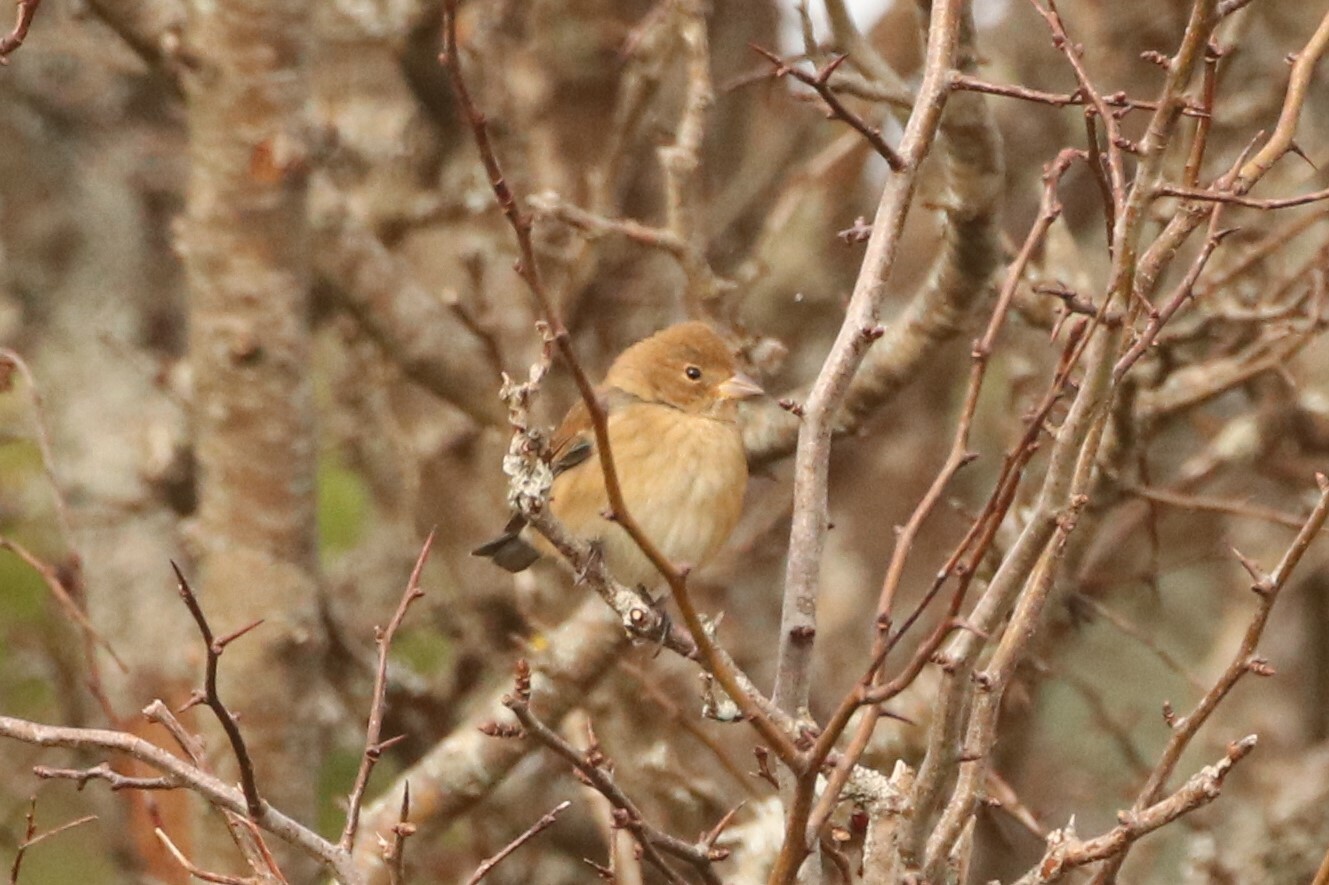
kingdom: Animalia
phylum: Chordata
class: Aves
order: Passeriformes
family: Cardinalidae
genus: Passerina
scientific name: Passerina cyanea
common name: Indigo bunting
